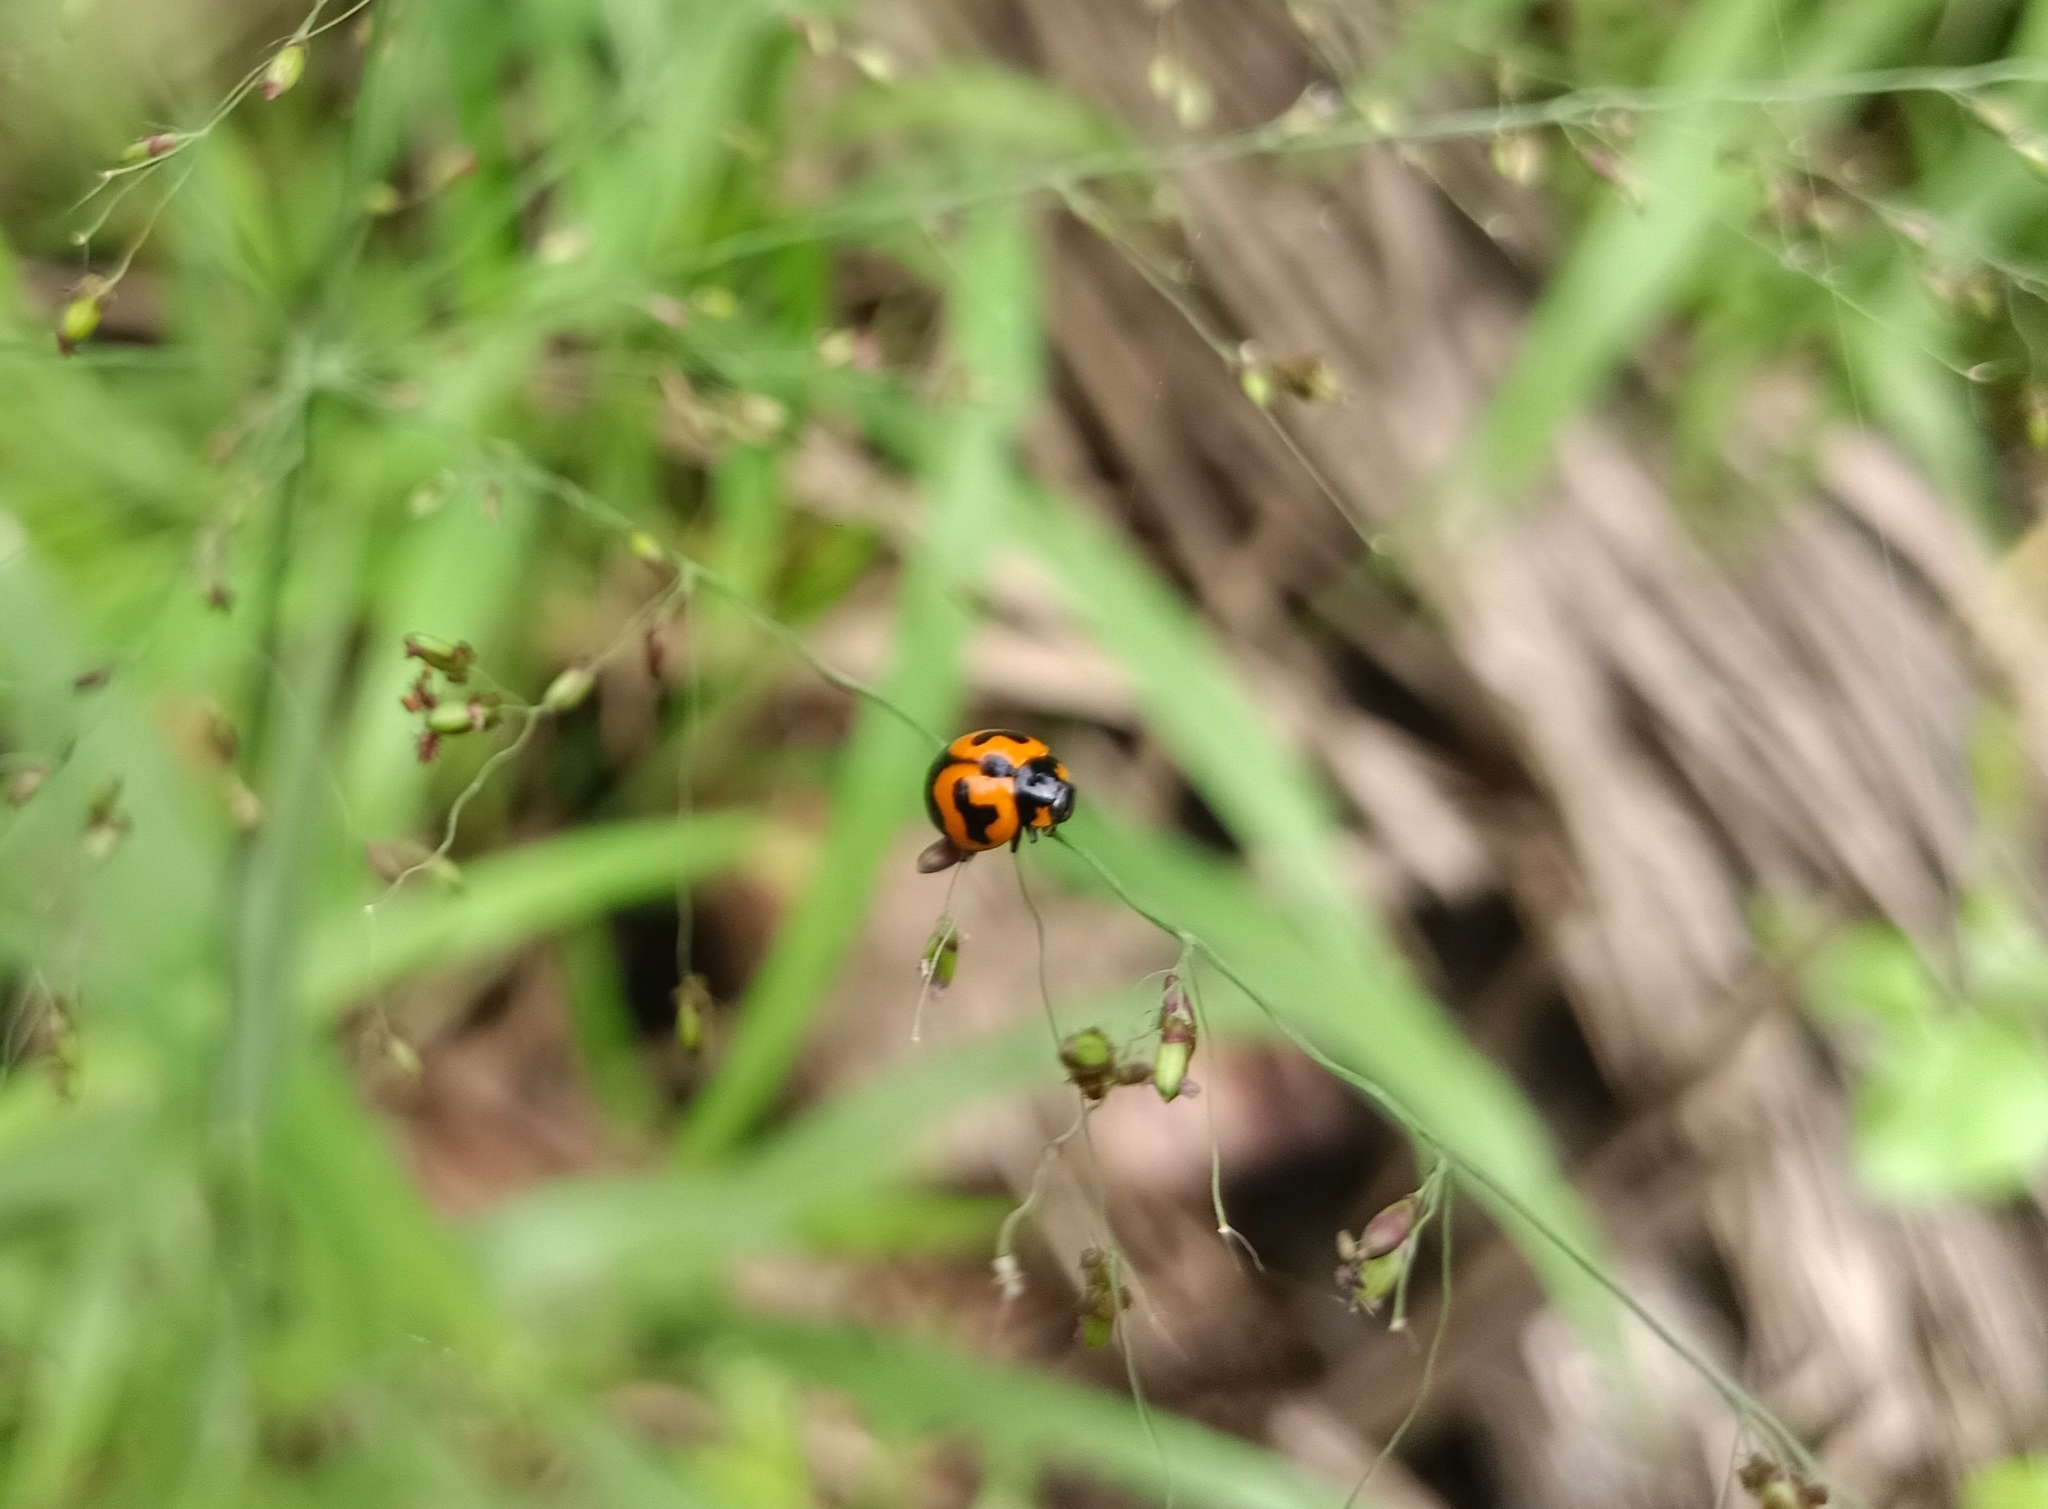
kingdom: Animalia
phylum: Arthropoda
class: Insecta
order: Coleoptera
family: Coccinellidae
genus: Coccinella
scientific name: Coccinella transversalis
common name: Transverse lady beetle
